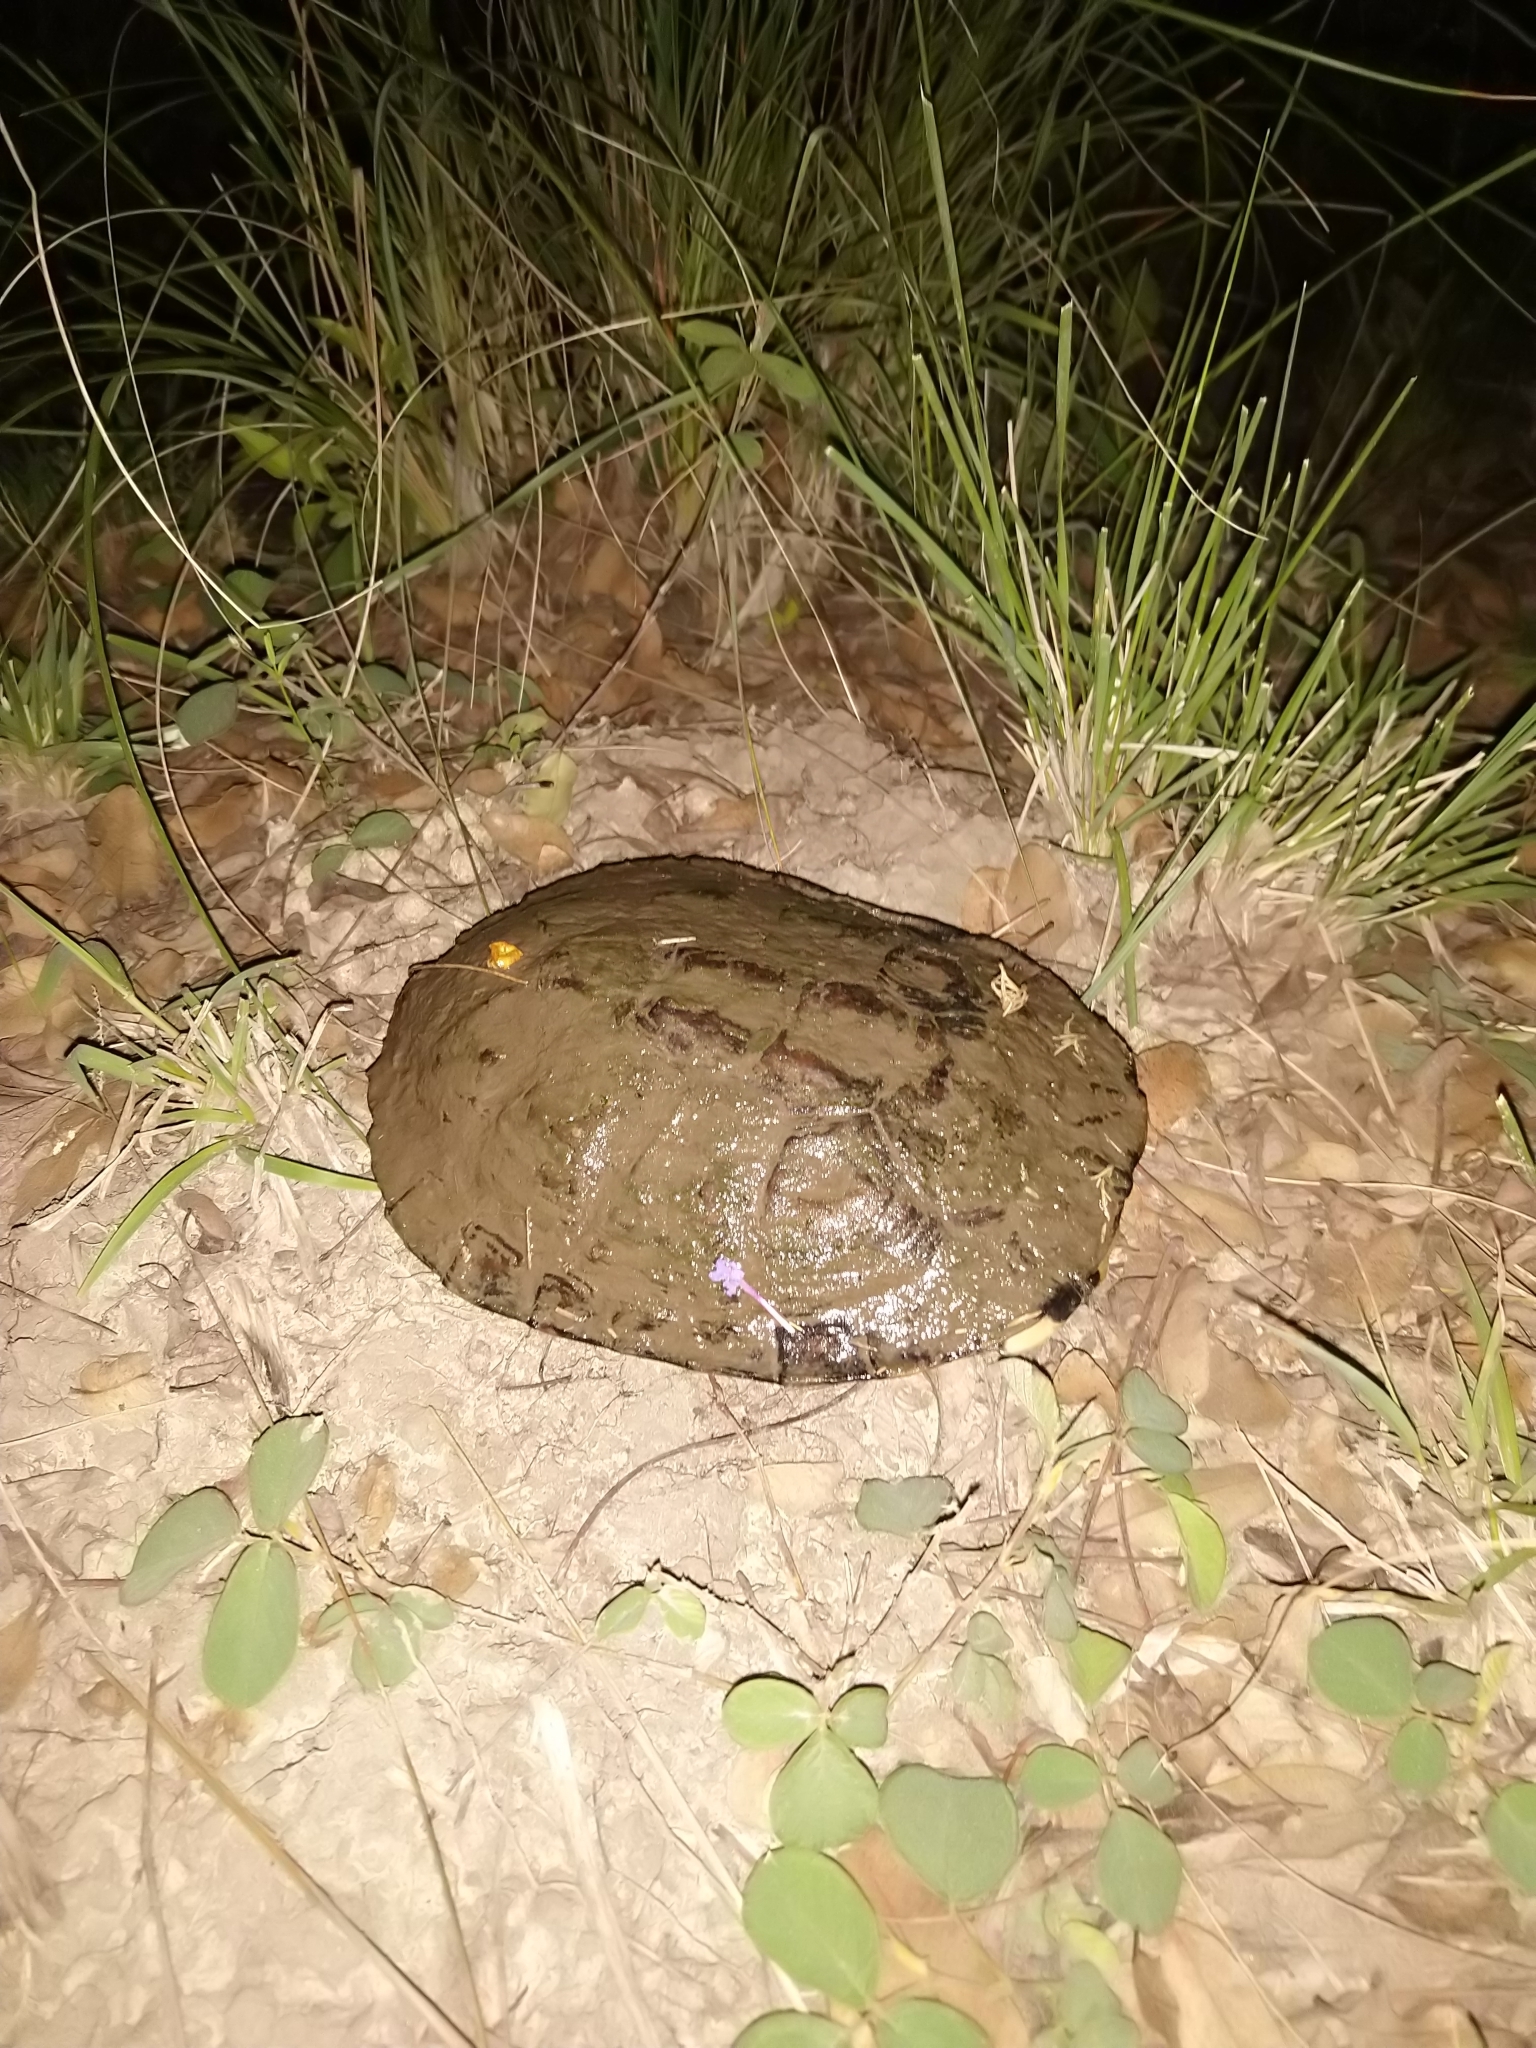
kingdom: Animalia
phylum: Chordata
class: Testudines
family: Chelidae
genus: Acanthochelys
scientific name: Acanthochelys pallidipectoris
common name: Chaco side-necked turtle
